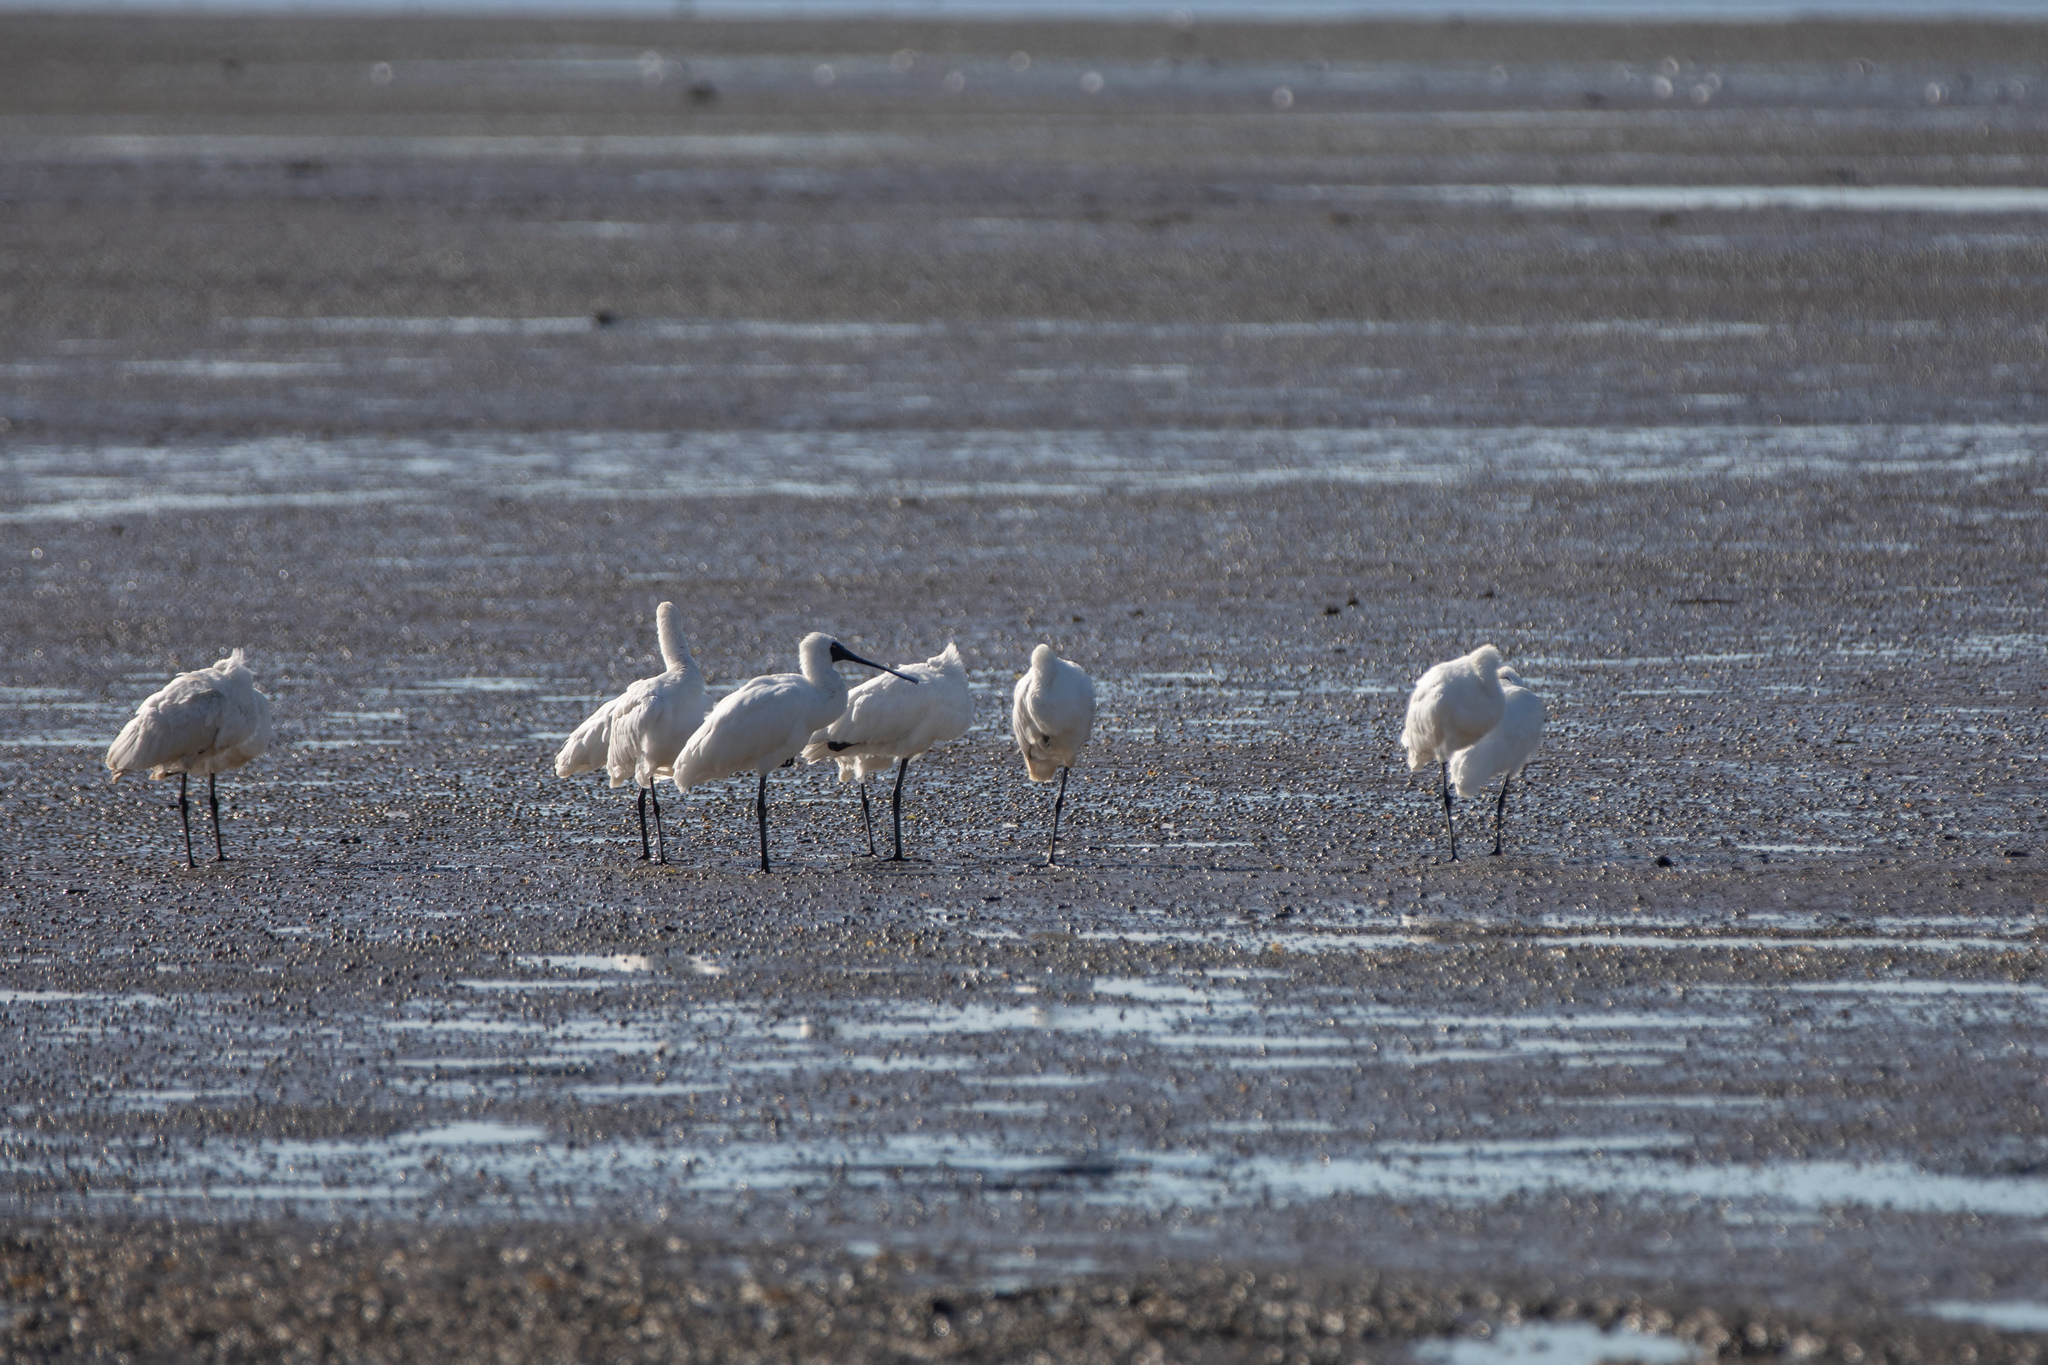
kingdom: Animalia
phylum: Chordata
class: Aves
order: Pelecaniformes
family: Threskiornithidae
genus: Platalea
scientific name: Platalea regia
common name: Royal spoonbill
